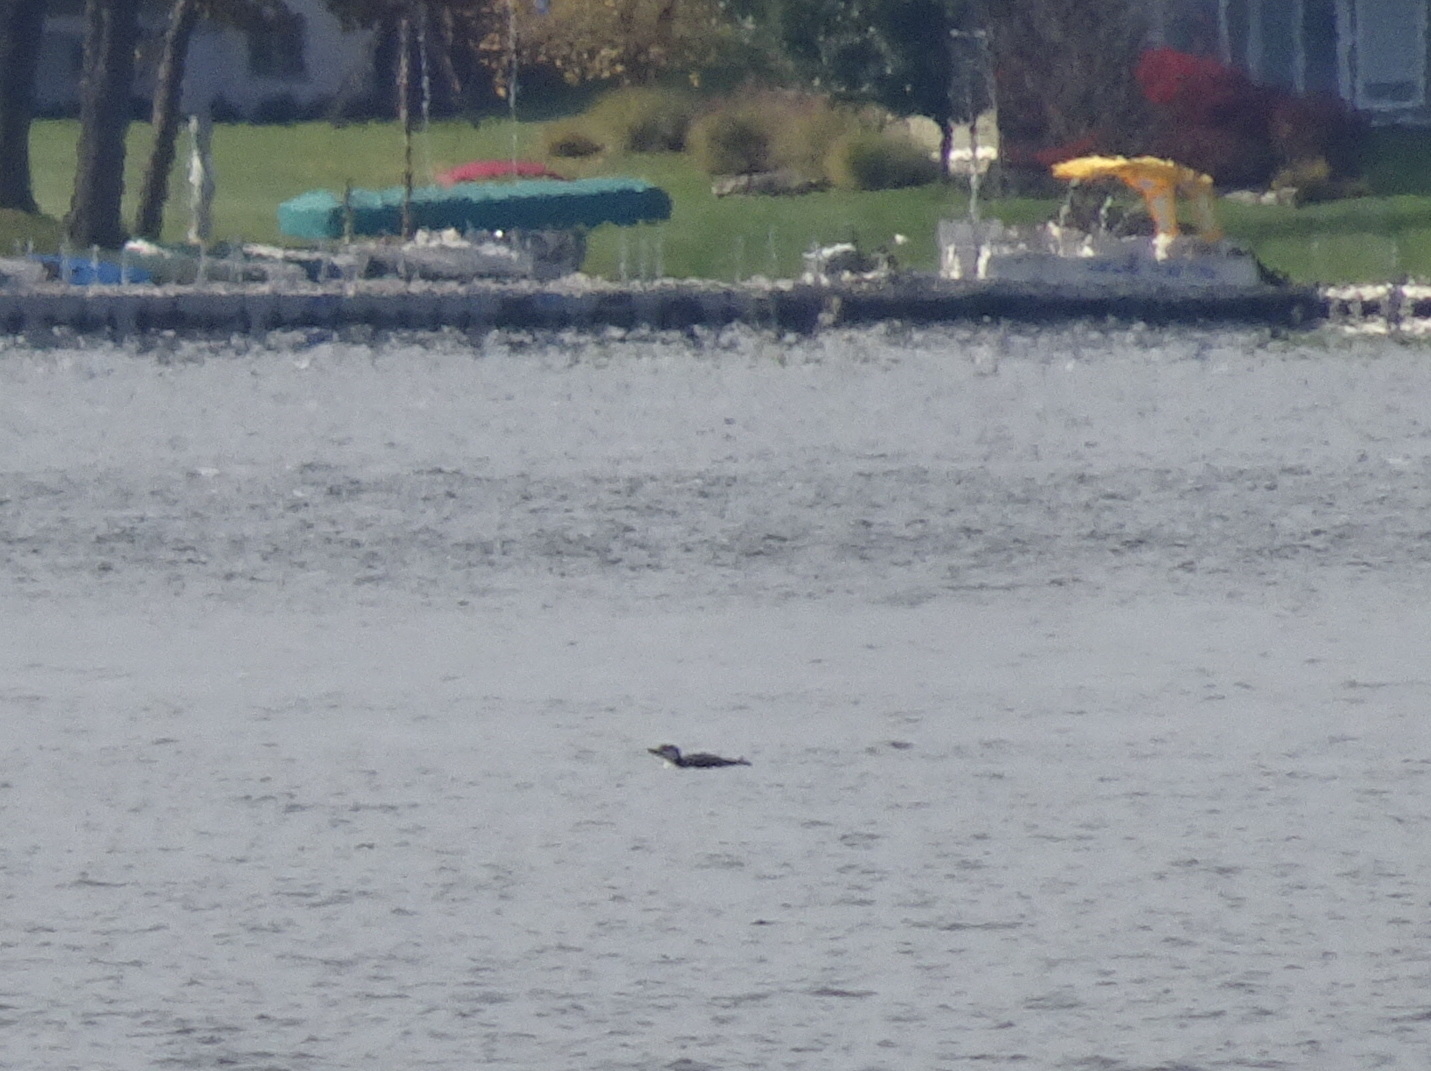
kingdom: Animalia
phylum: Chordata
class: Aves
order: Gaviiformes
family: Gaviidae
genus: Gavia
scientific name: Gavia immer
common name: Common loon
